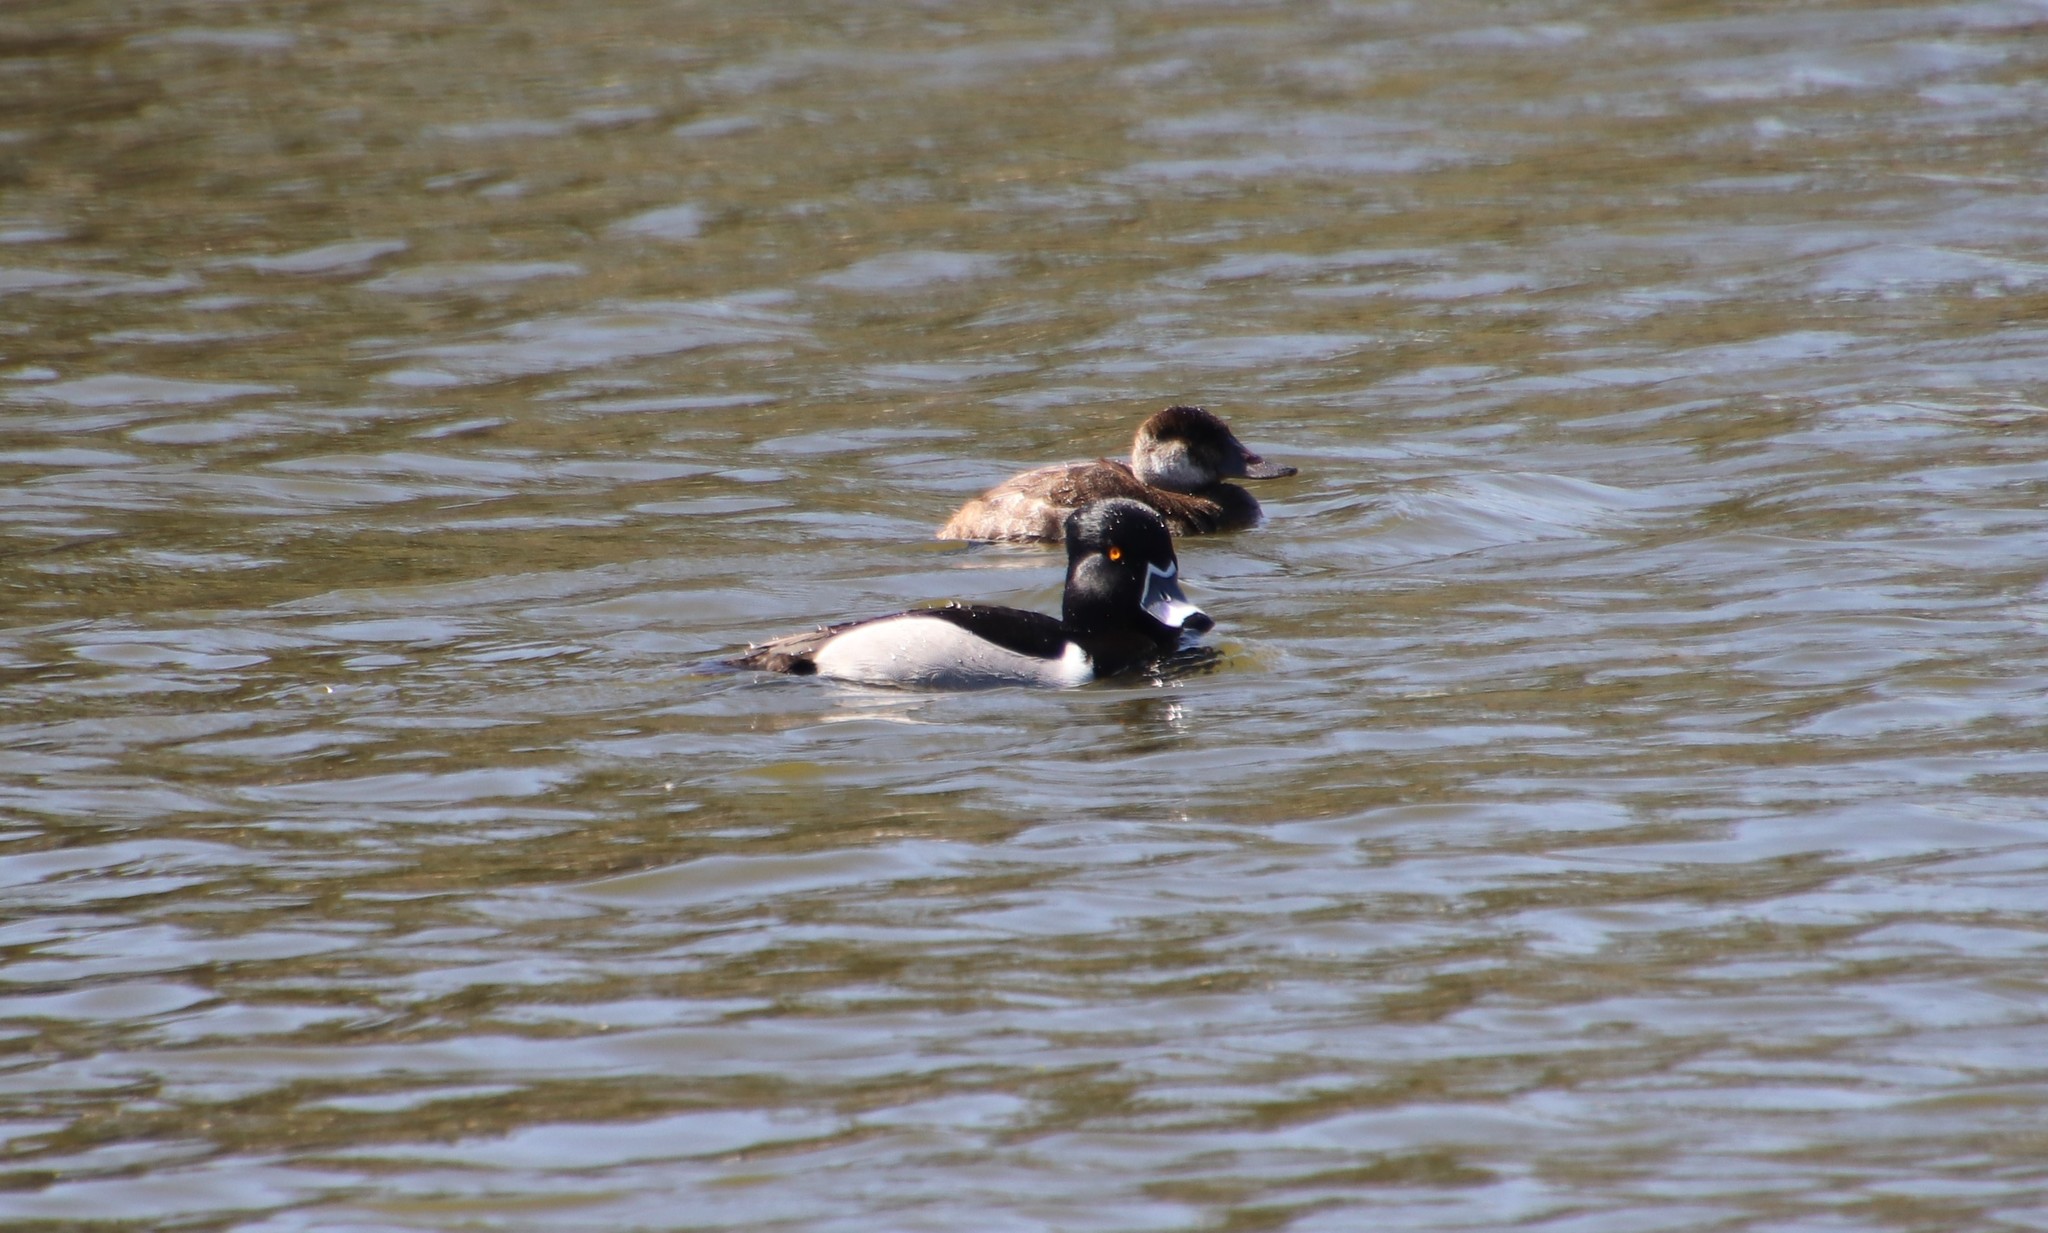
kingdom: Animalia
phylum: Chordata
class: Aves
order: Anseriformes
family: Anatidae
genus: Aythya
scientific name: Aythya collaris
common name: Ring-necked duck
